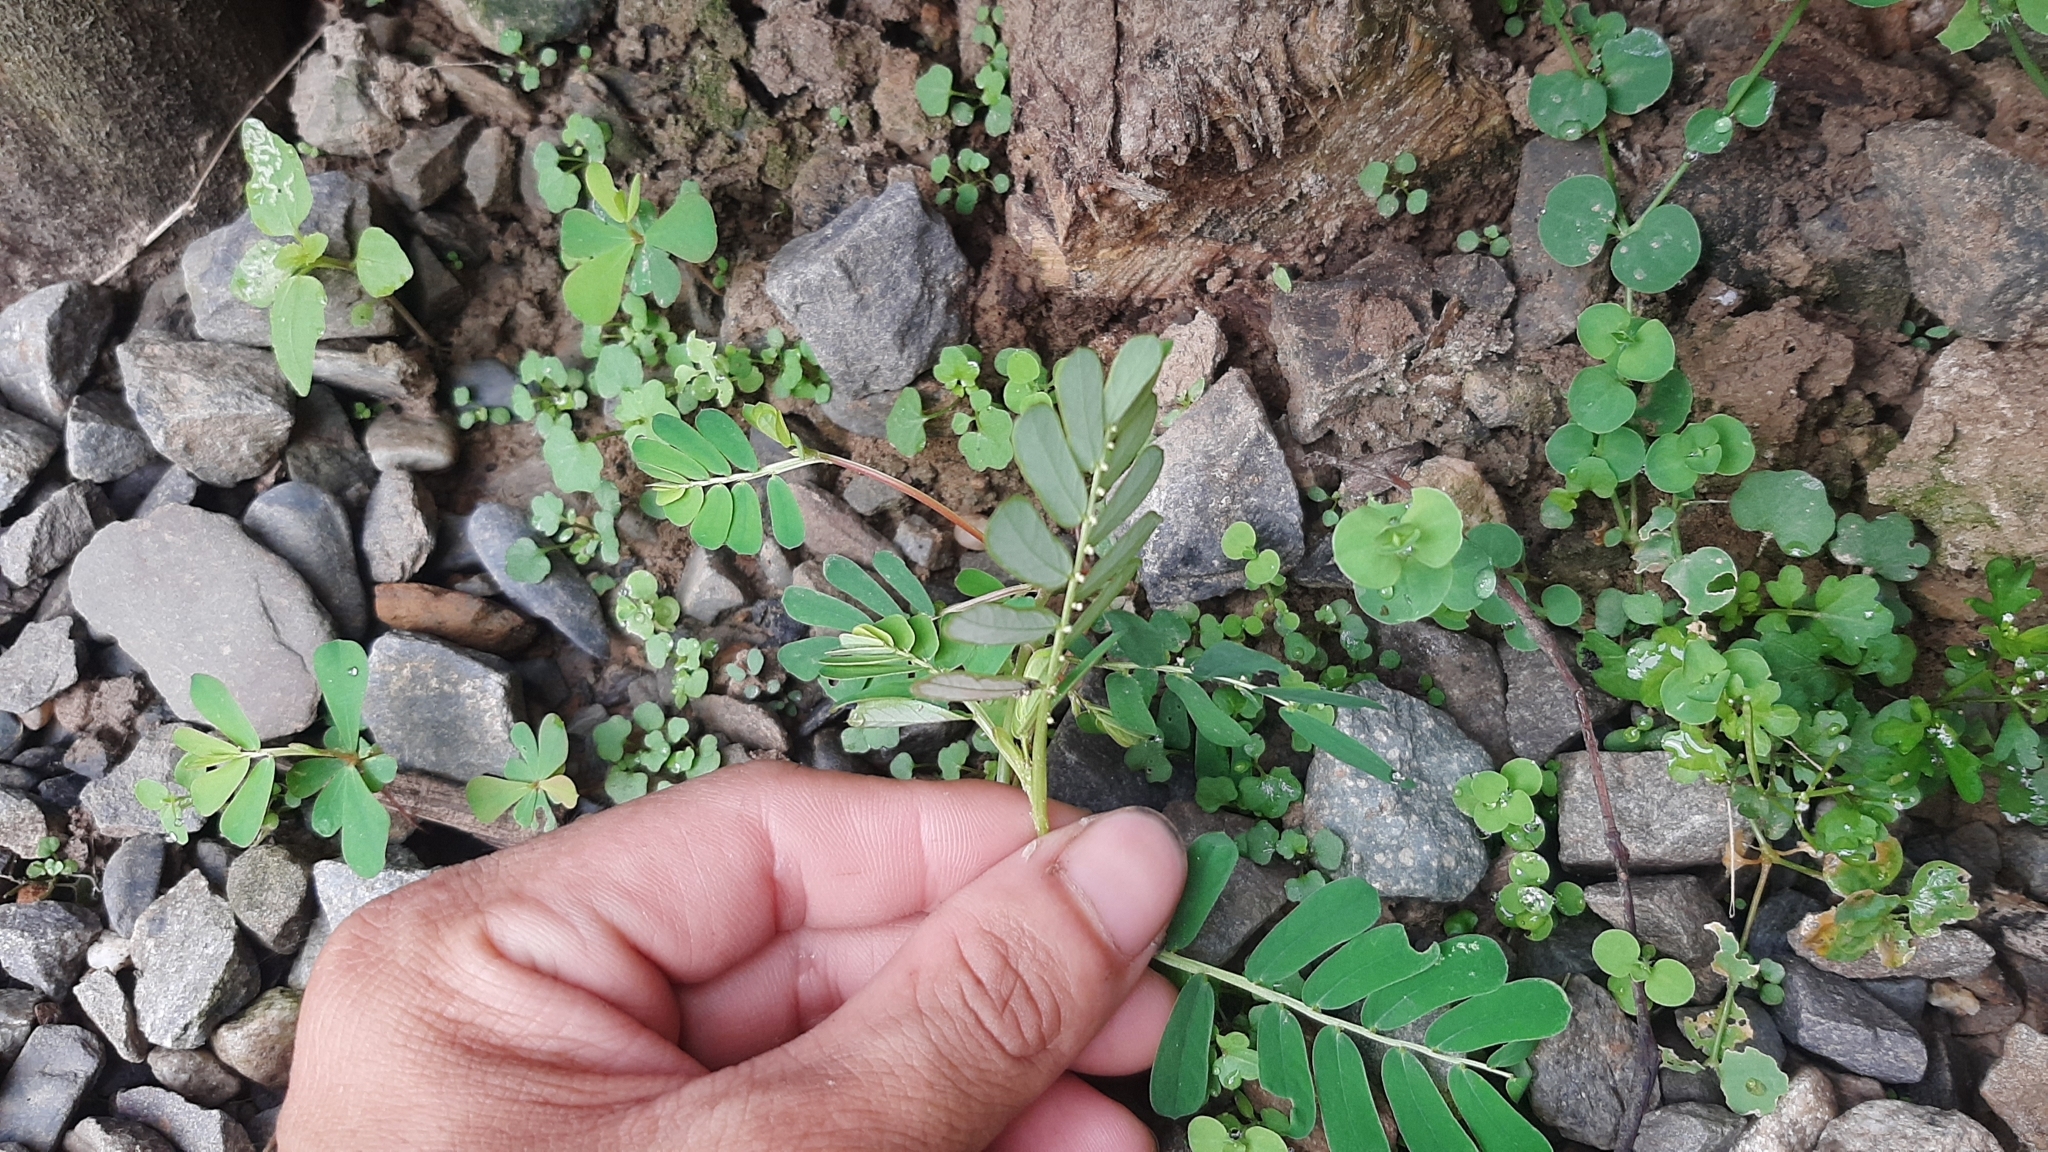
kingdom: Plantae
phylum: Tracheophyta
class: Magnoliopsida
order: Malpighiales
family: Phyllanthaceae
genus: Phyllanthus
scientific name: Phyllanthus urinaria
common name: Chamber bitter
